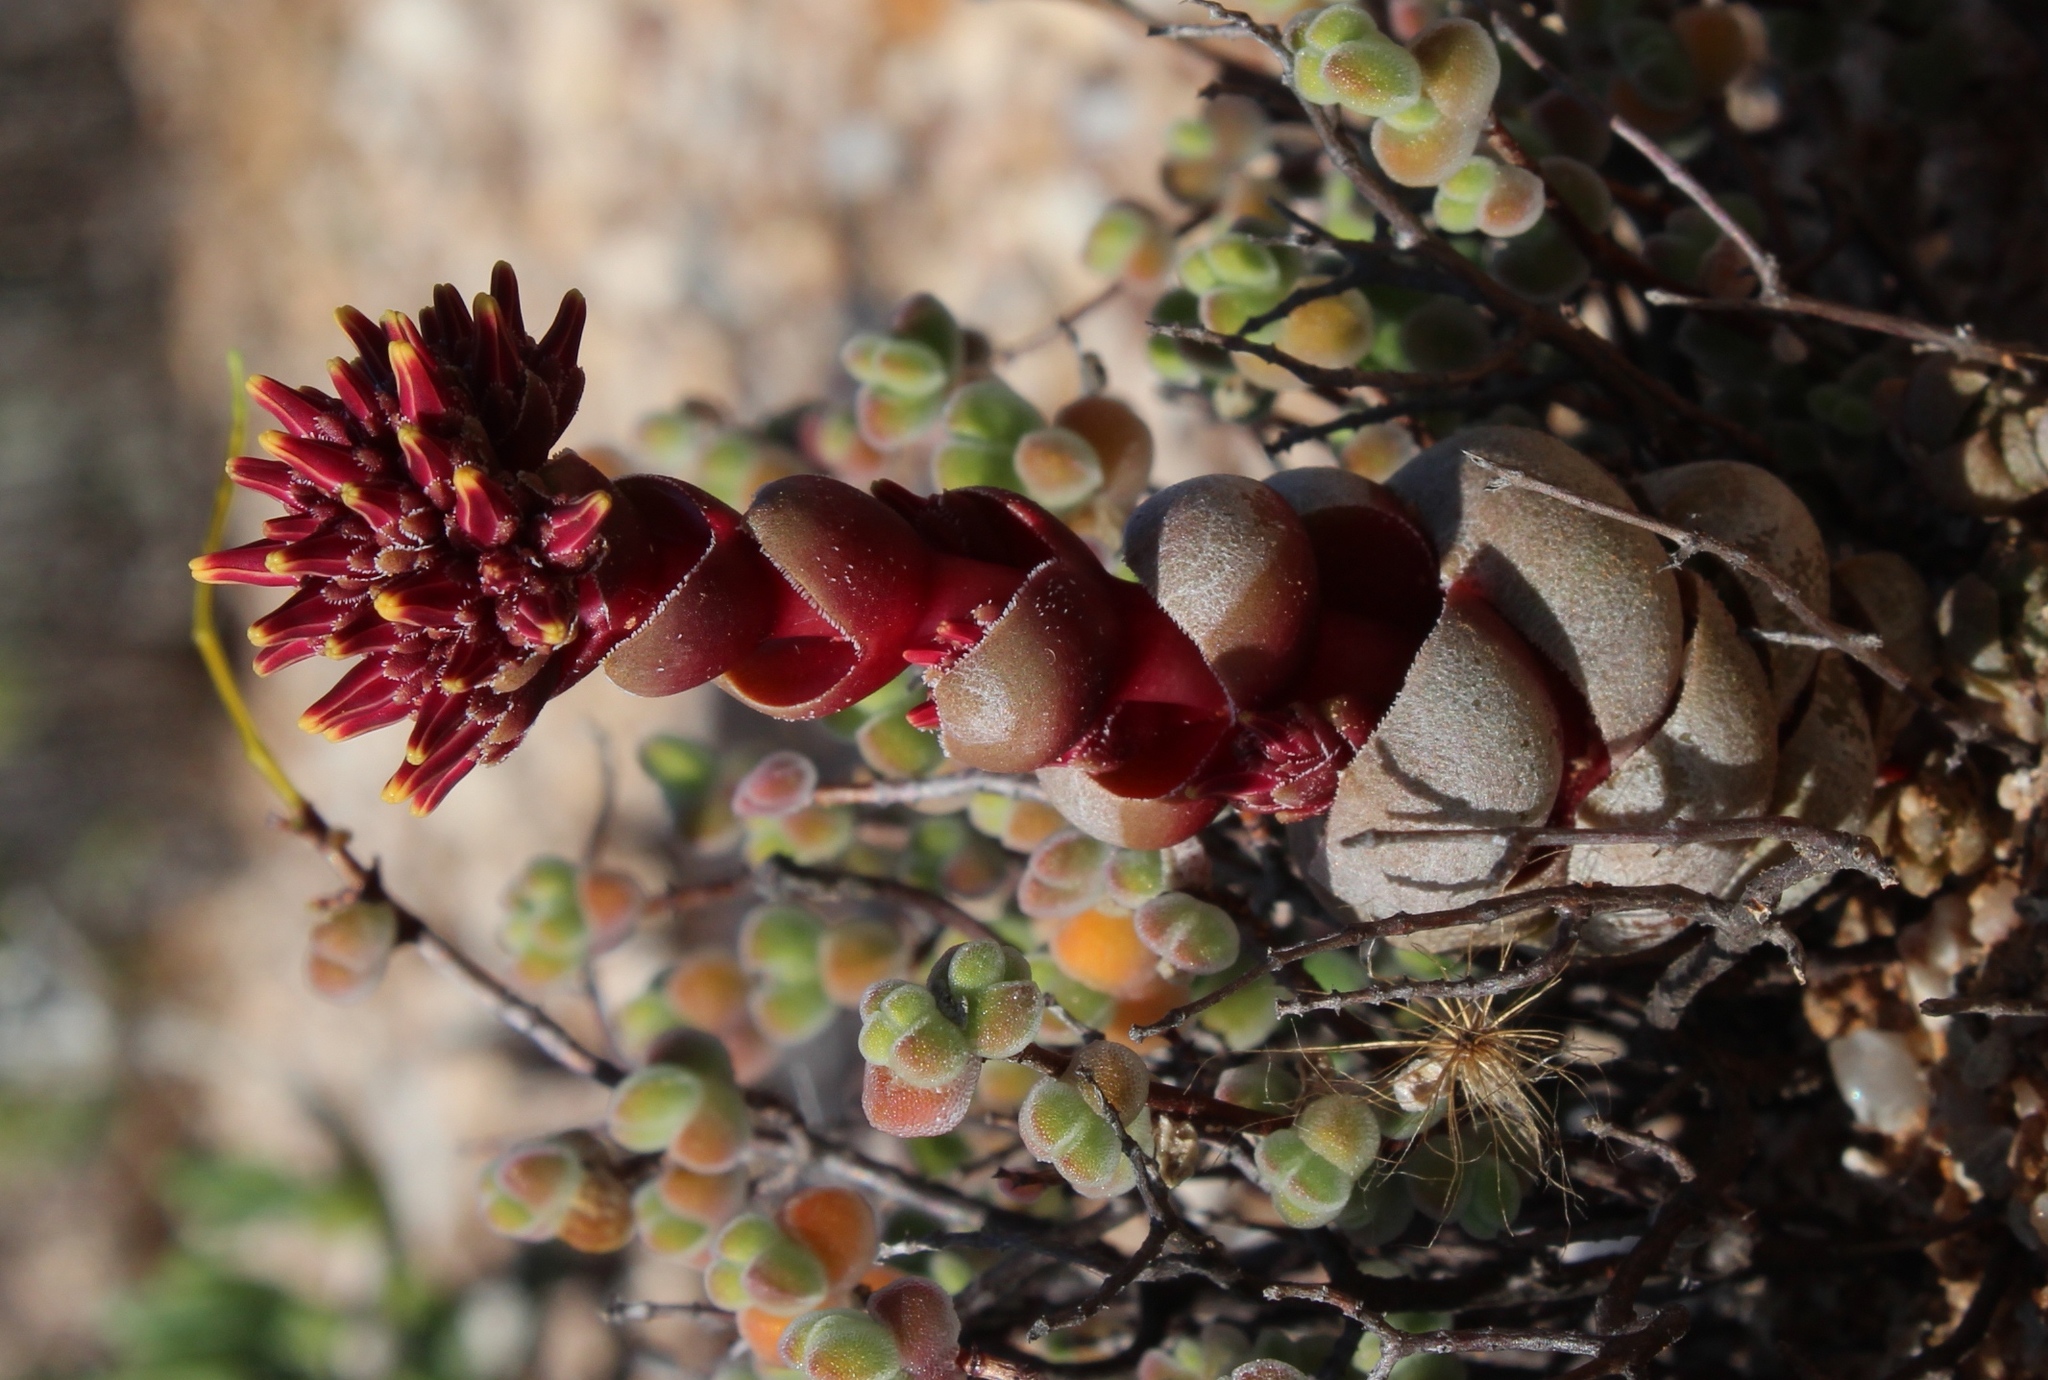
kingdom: Plantae
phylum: Tracheophyta
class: Magnoliopsida
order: Saxifragales
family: Crassulaceae
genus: Crassula
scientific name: Crassula columnaris
